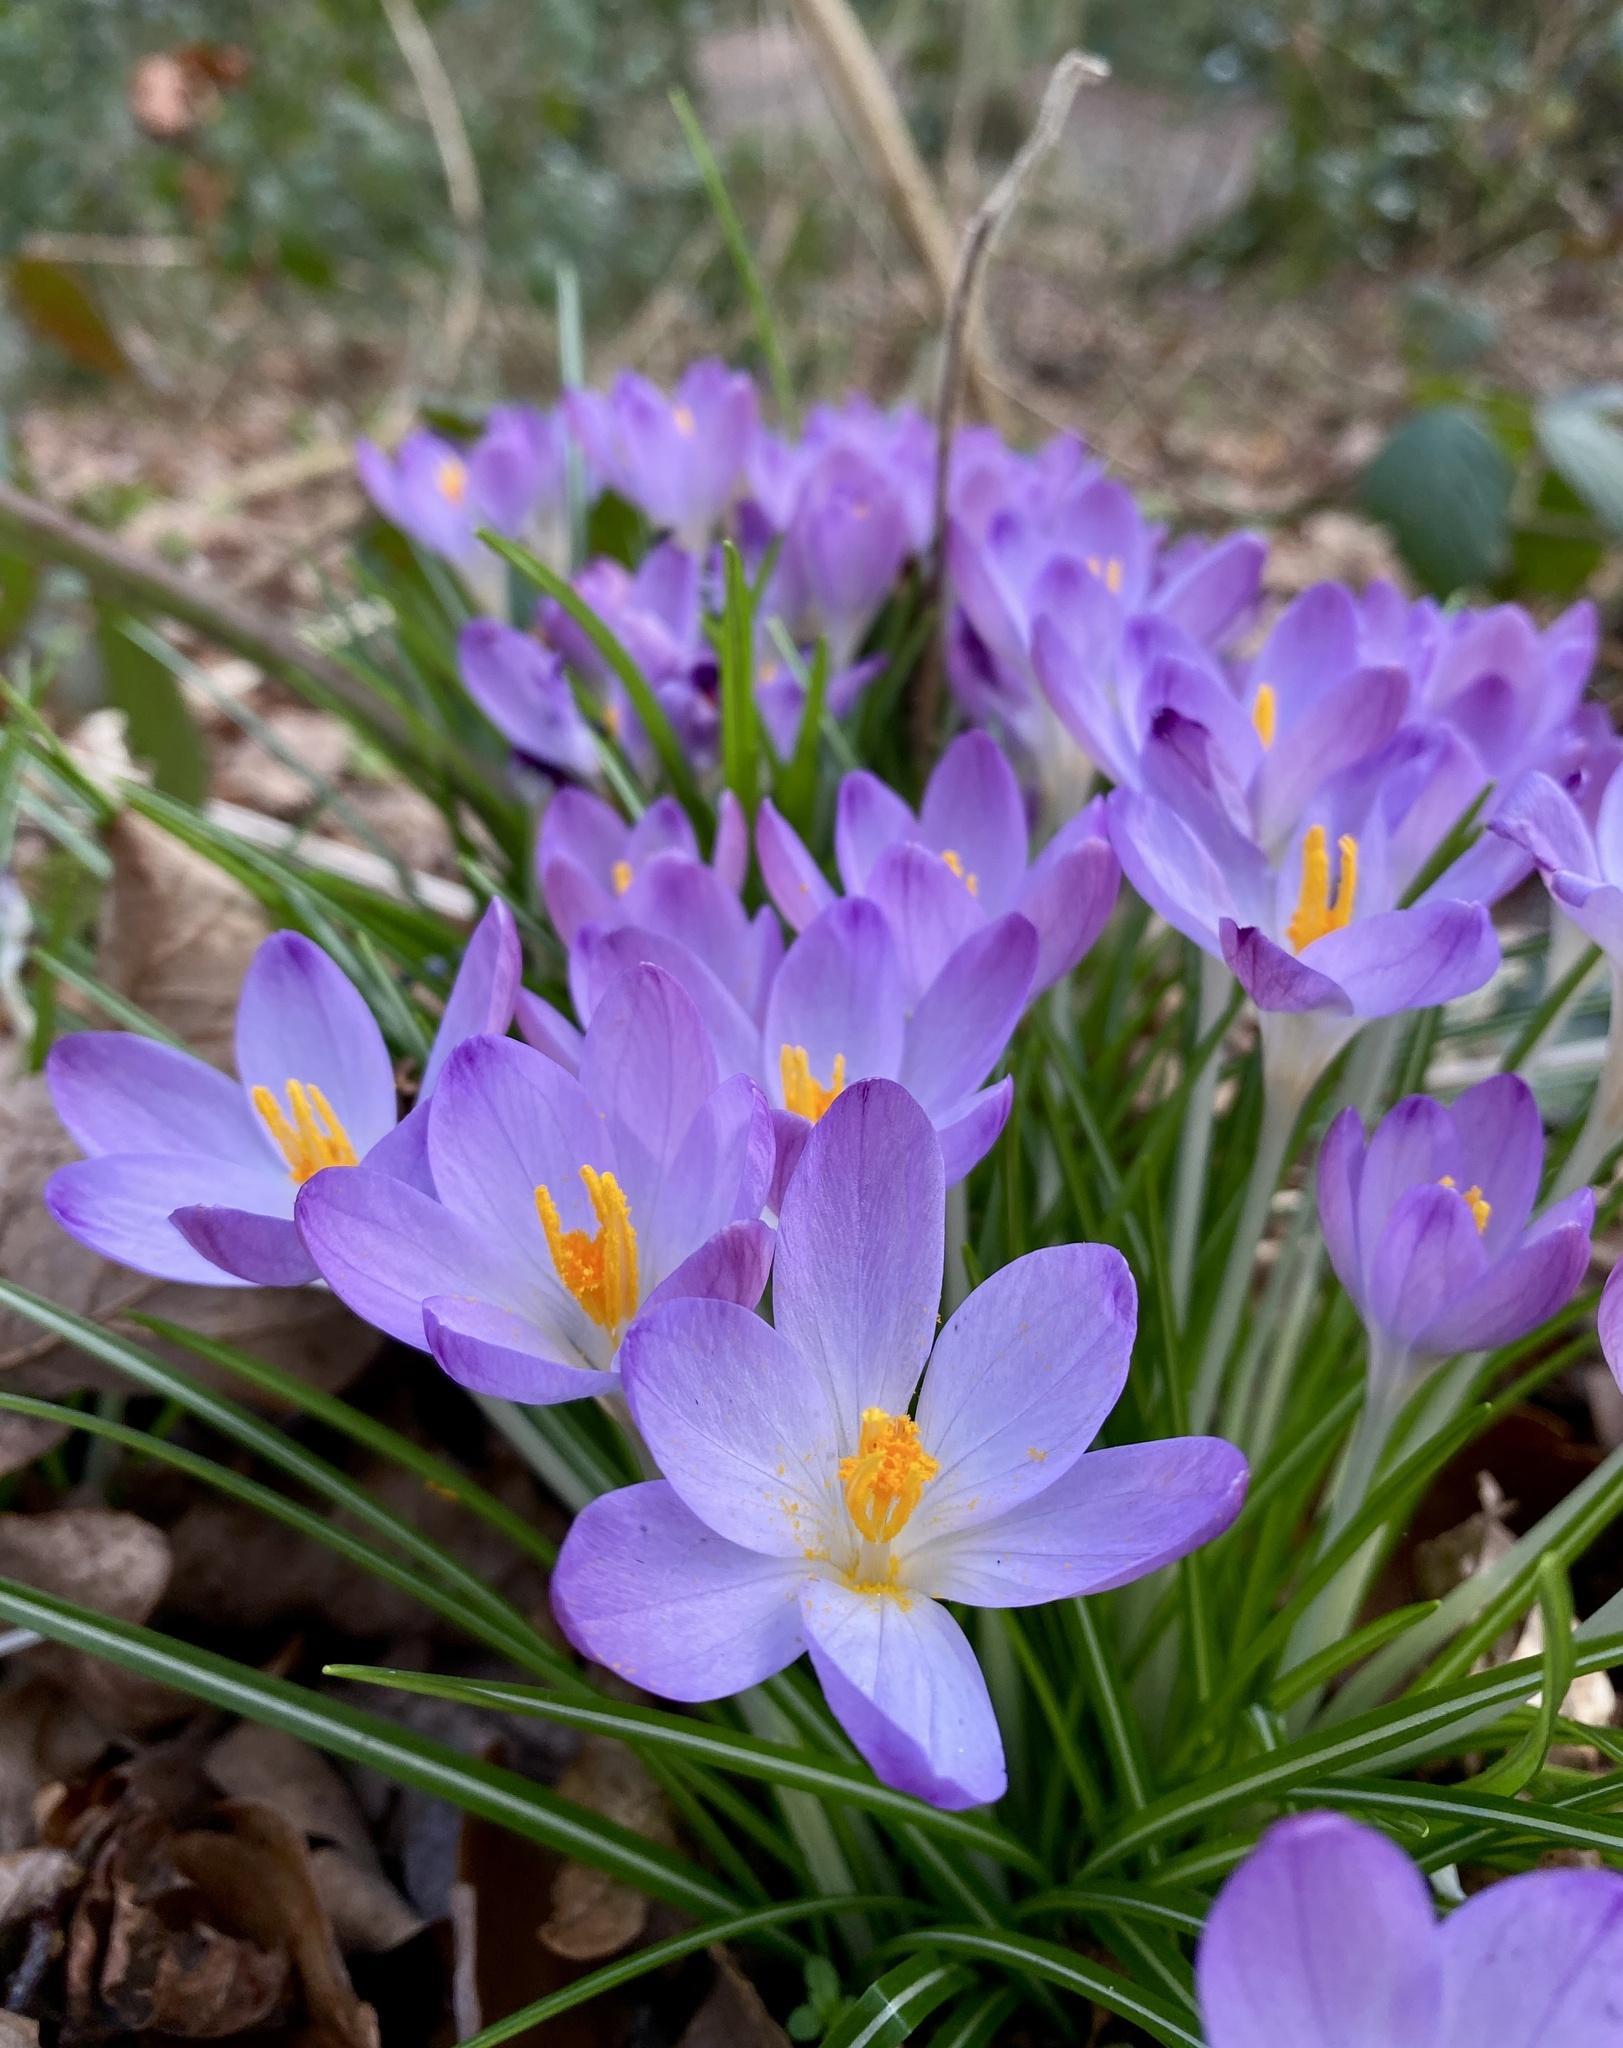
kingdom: Plantae
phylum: Tracheophyta
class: Liliopsida
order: Asparagales
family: Iridaceae
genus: Crocus
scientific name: Crocus tommasinianus
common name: Early crocus
